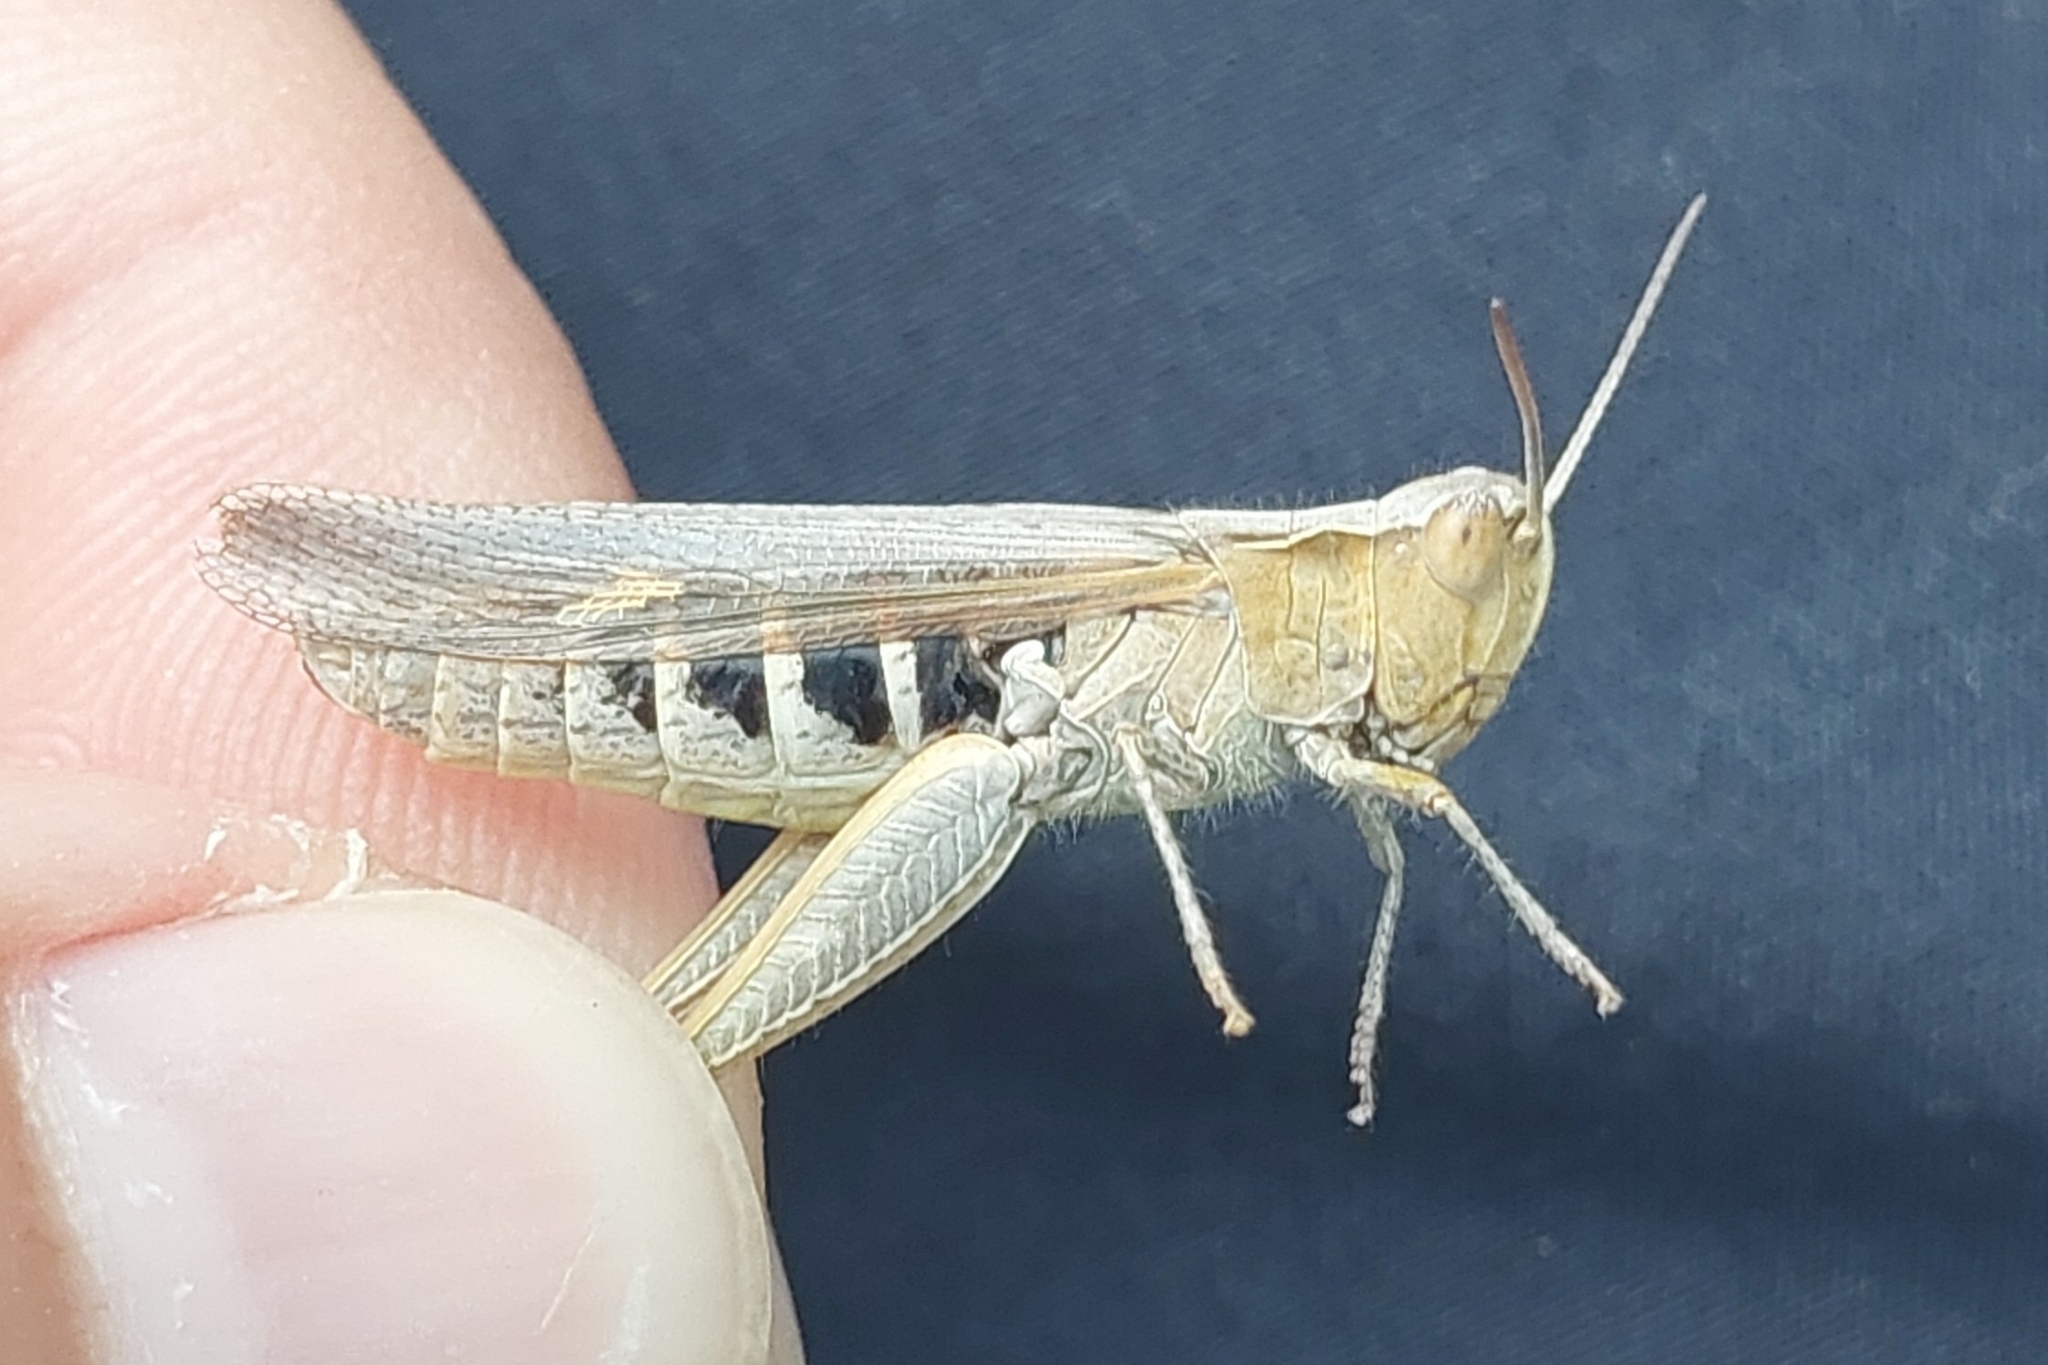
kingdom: Animalia
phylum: Arthropoda
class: Insecta
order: Orthoptera
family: Acrididae
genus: Chorthippus
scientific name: Chorthippus maritimus
